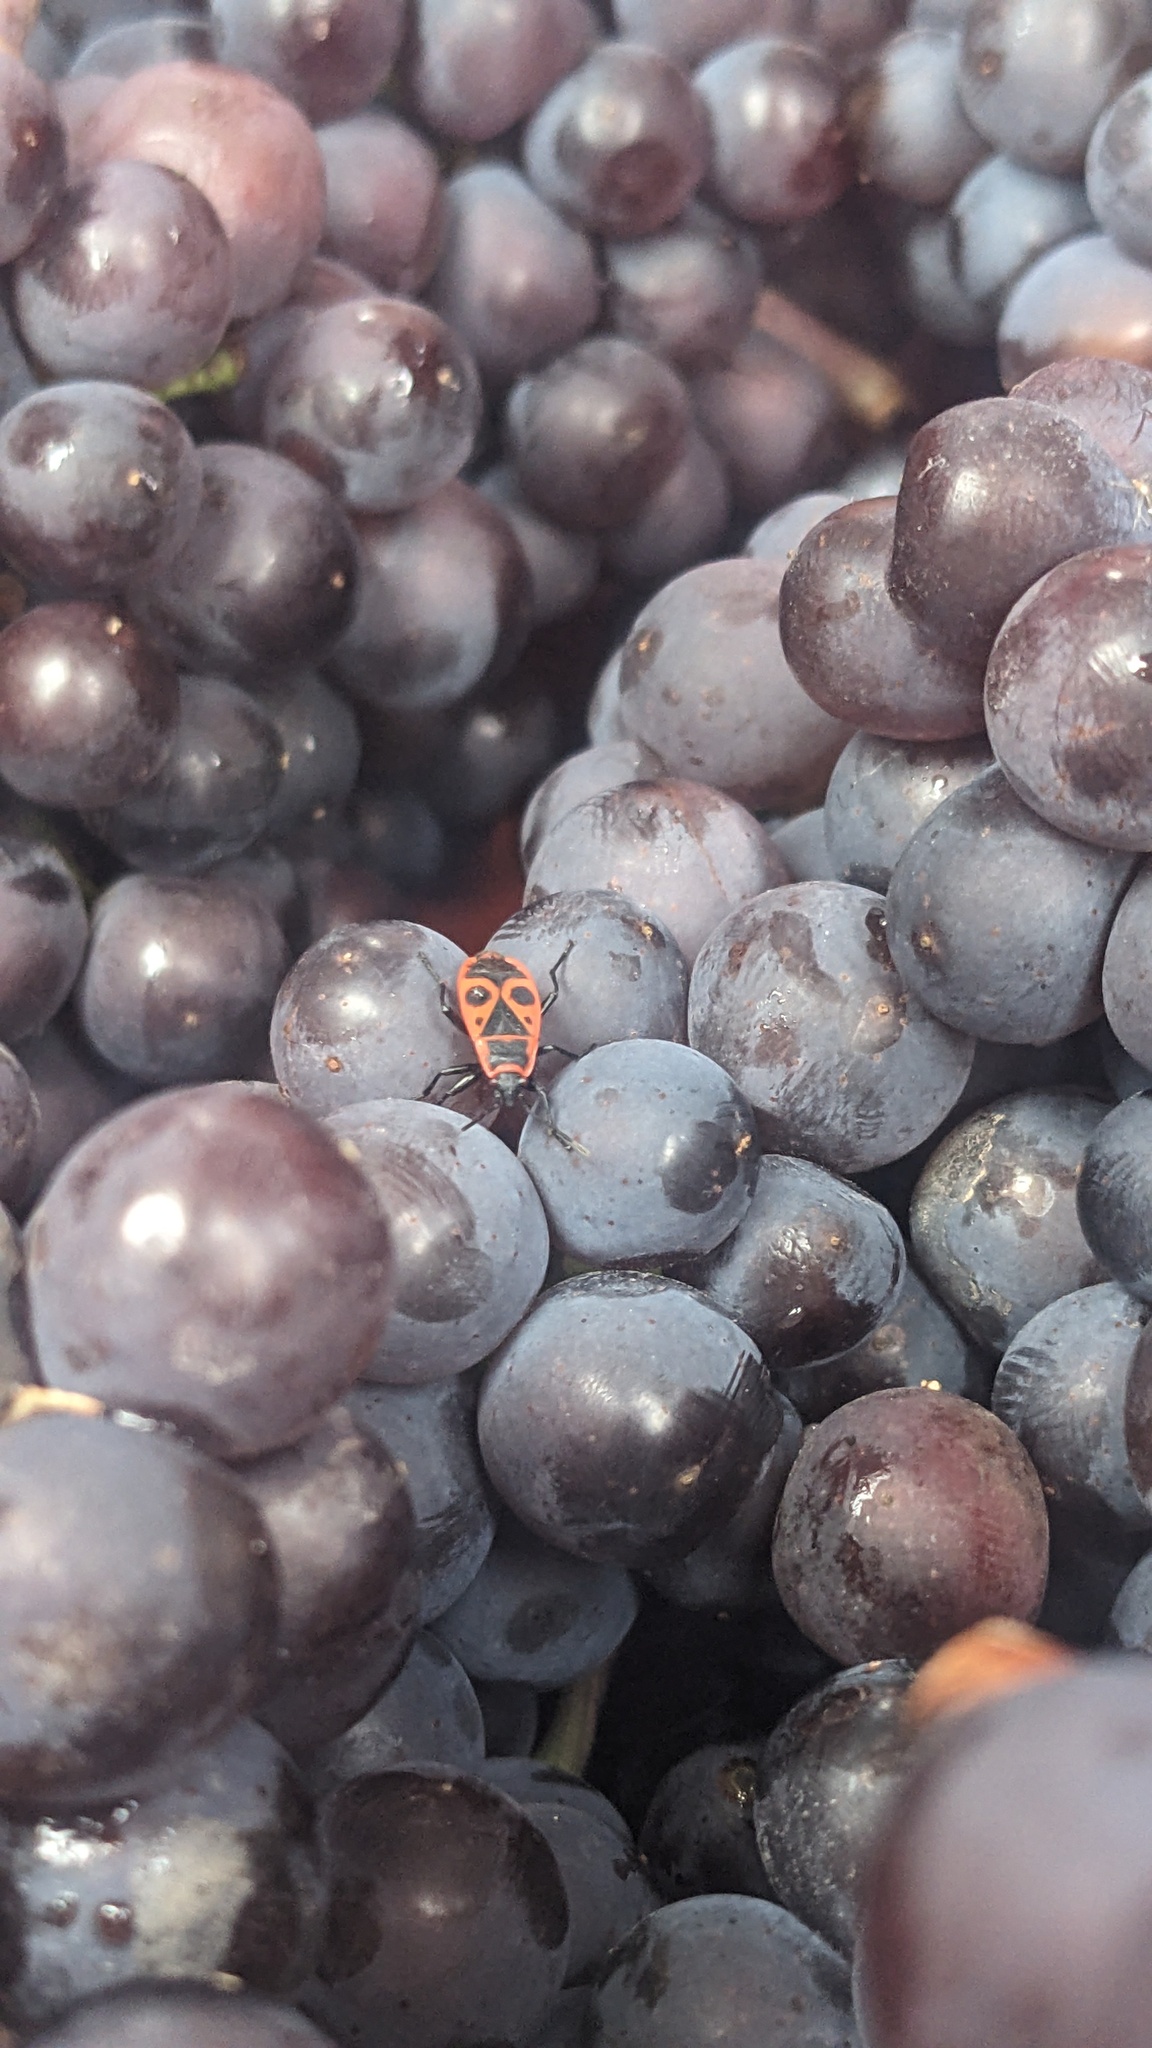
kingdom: Animalia
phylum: Arthropoda
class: Insecta
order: Hemiptera
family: Pyrrhocoridae
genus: Pyrrhocoris
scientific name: Pyrrhocoris apterus
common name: Firebug
